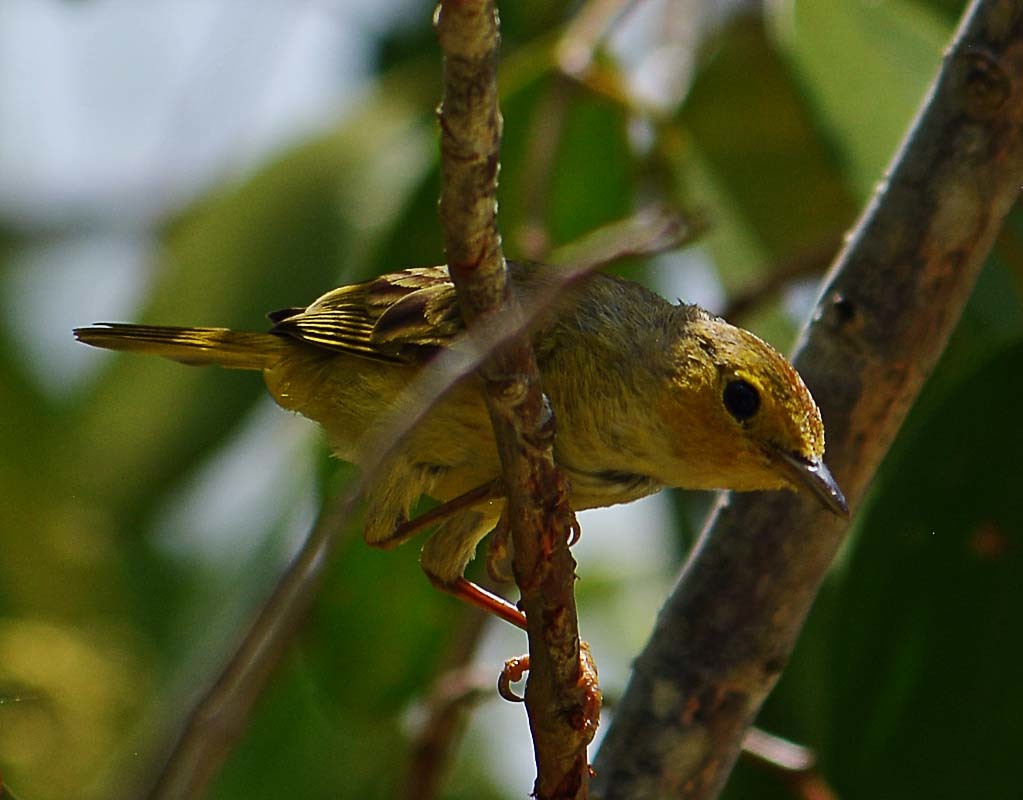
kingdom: Animalia
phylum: Chordata
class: Aves
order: Passeriformes
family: Vireonidae
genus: Vireo
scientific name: Vireo pallens
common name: Mangrove vireo
